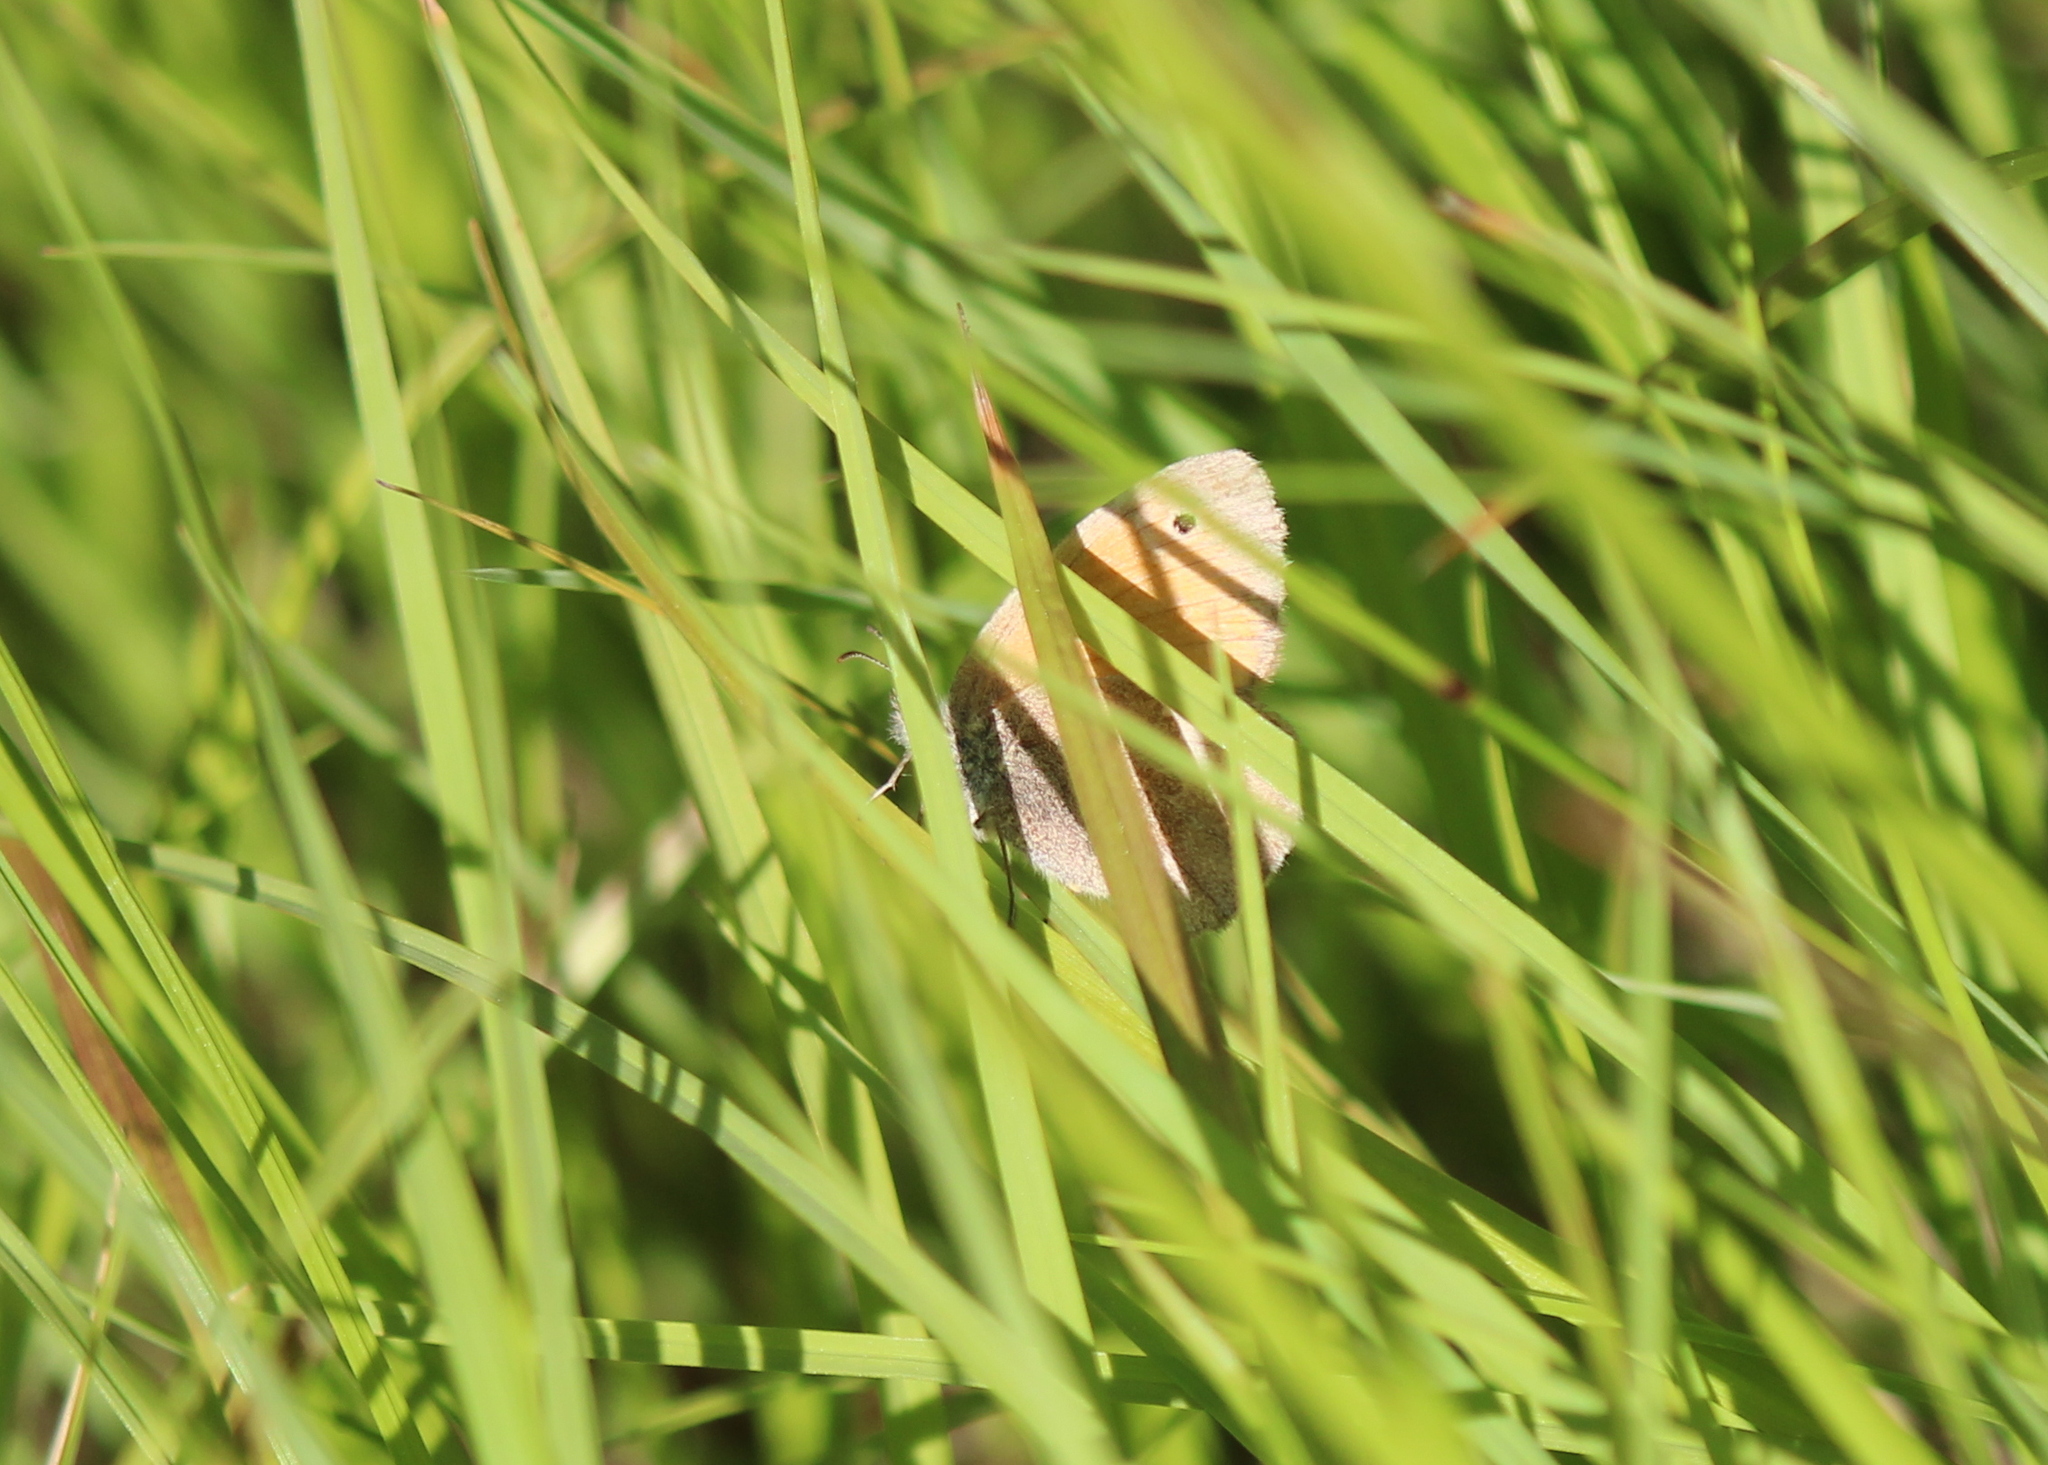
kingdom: Animalia
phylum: Arthropoda
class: Insecta
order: Lepidoptera
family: Nymphalidae
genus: Coenonympha
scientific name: Coenonympha california
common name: Common ringlet
